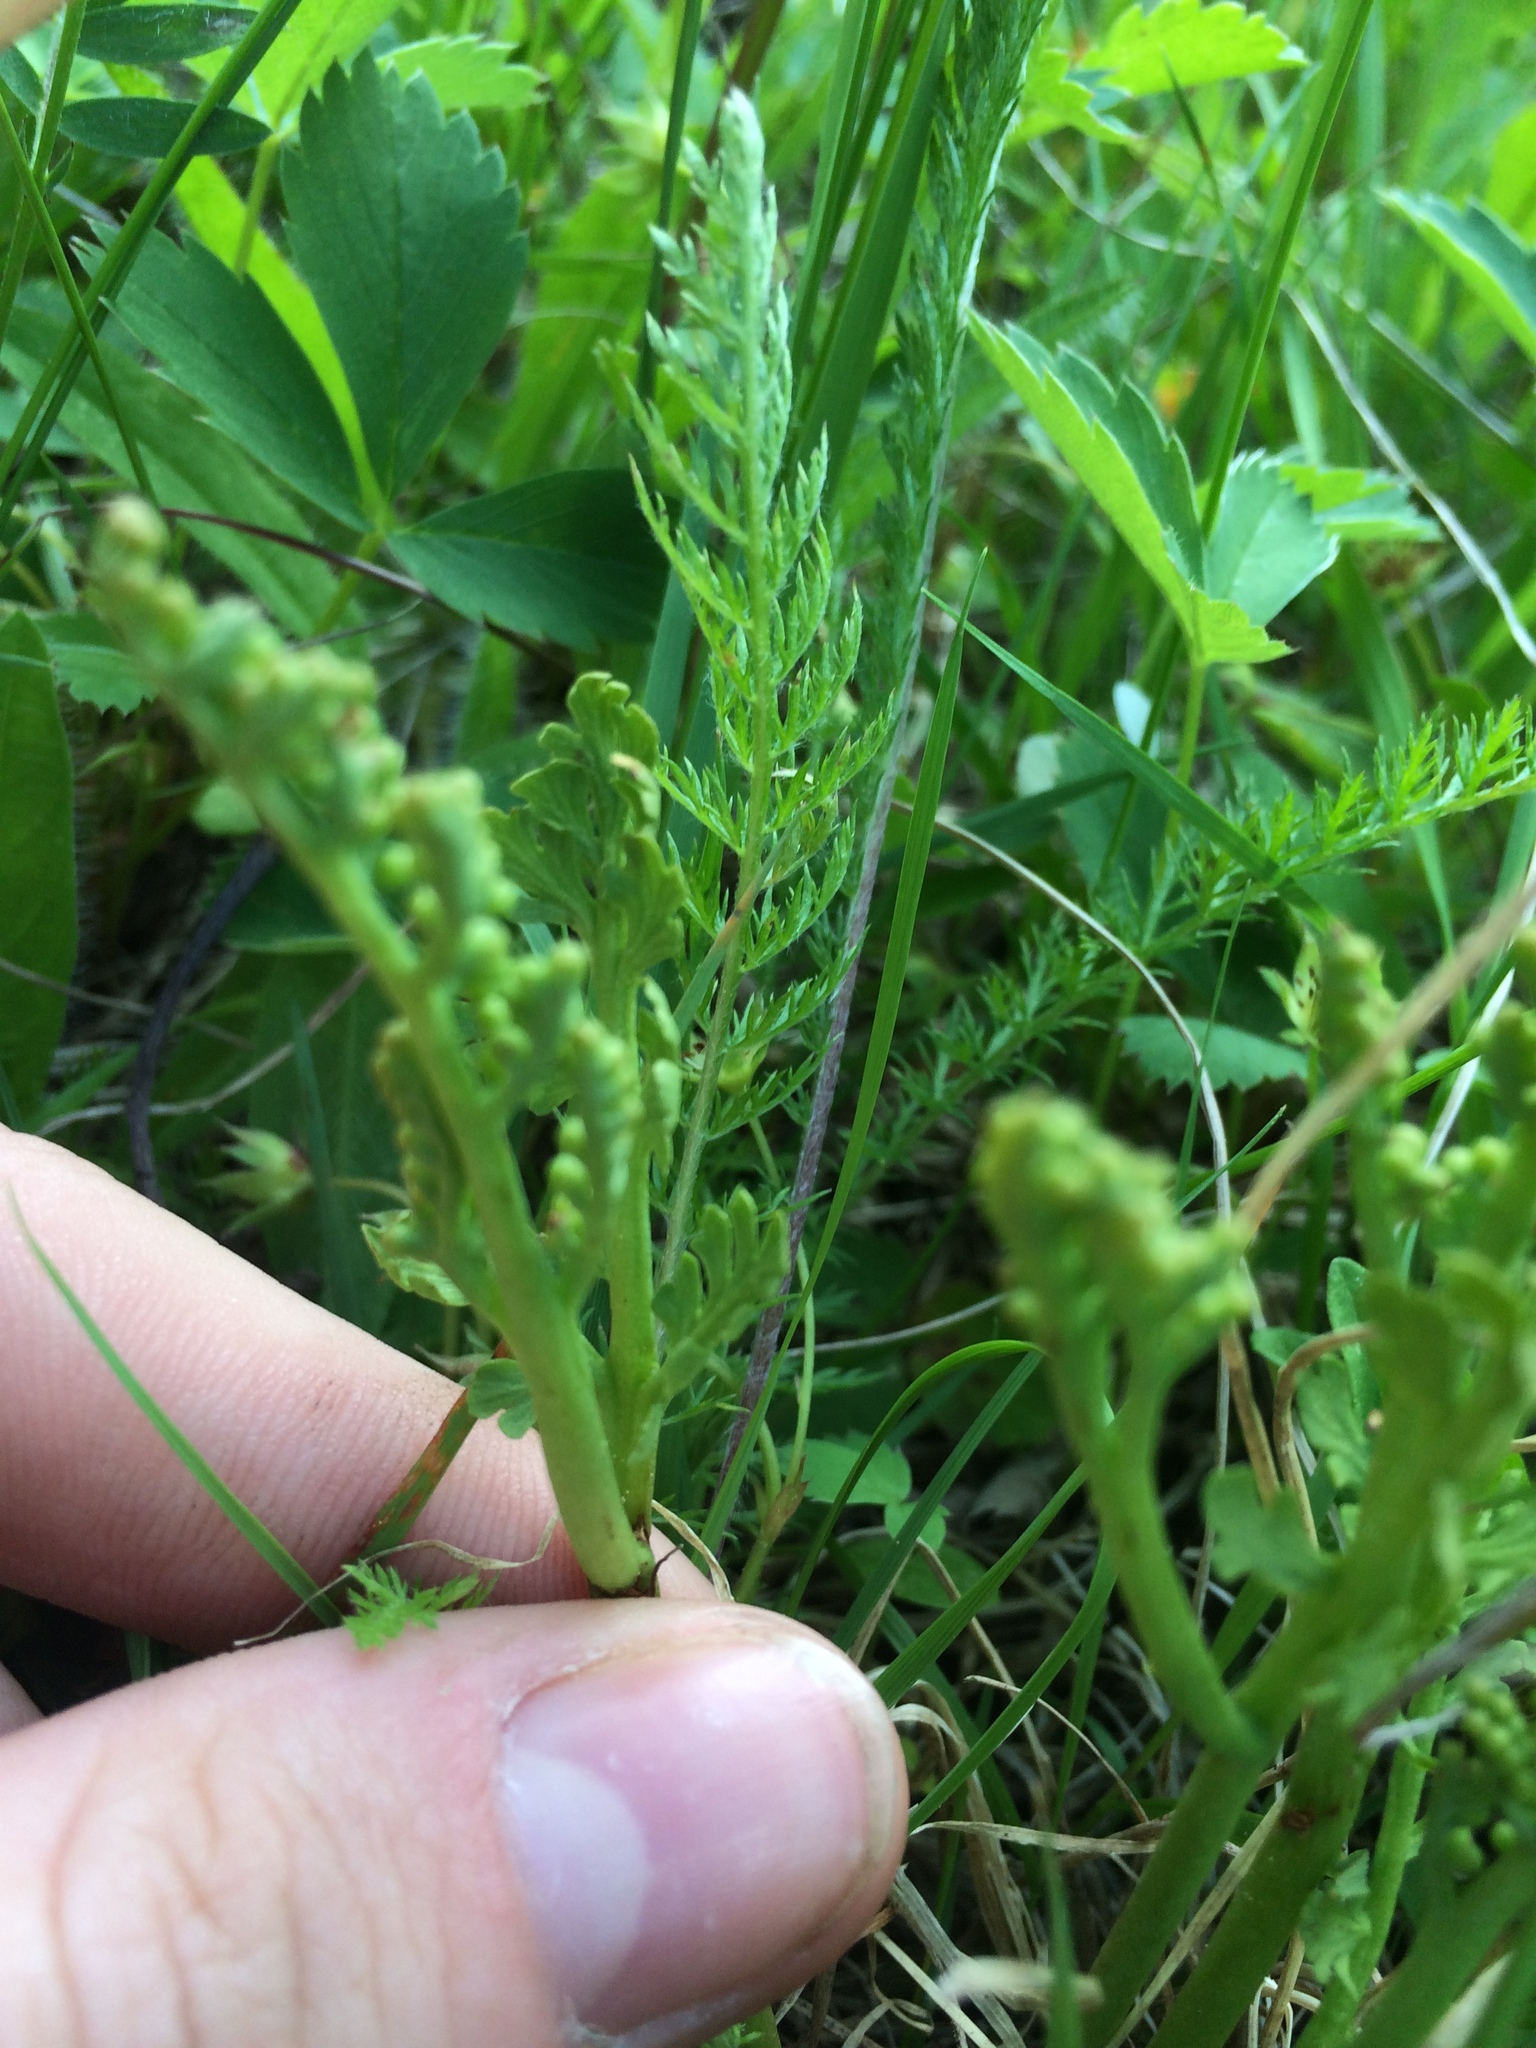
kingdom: Plantae
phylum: Tracheophyta
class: Polypodiopsida
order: Ophioglossales
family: Ophioglossaceae
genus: Botrychium
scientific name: Botrychium matricariifolium
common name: Branched moonwort
